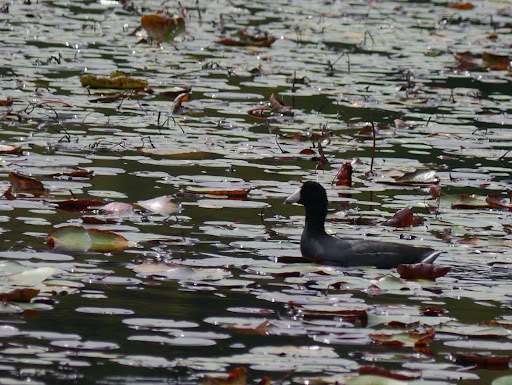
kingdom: Animalia
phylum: Chordata
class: Aves
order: Gruiformes
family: Rallidae
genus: Fulica
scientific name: Fulica americana
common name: American coot
